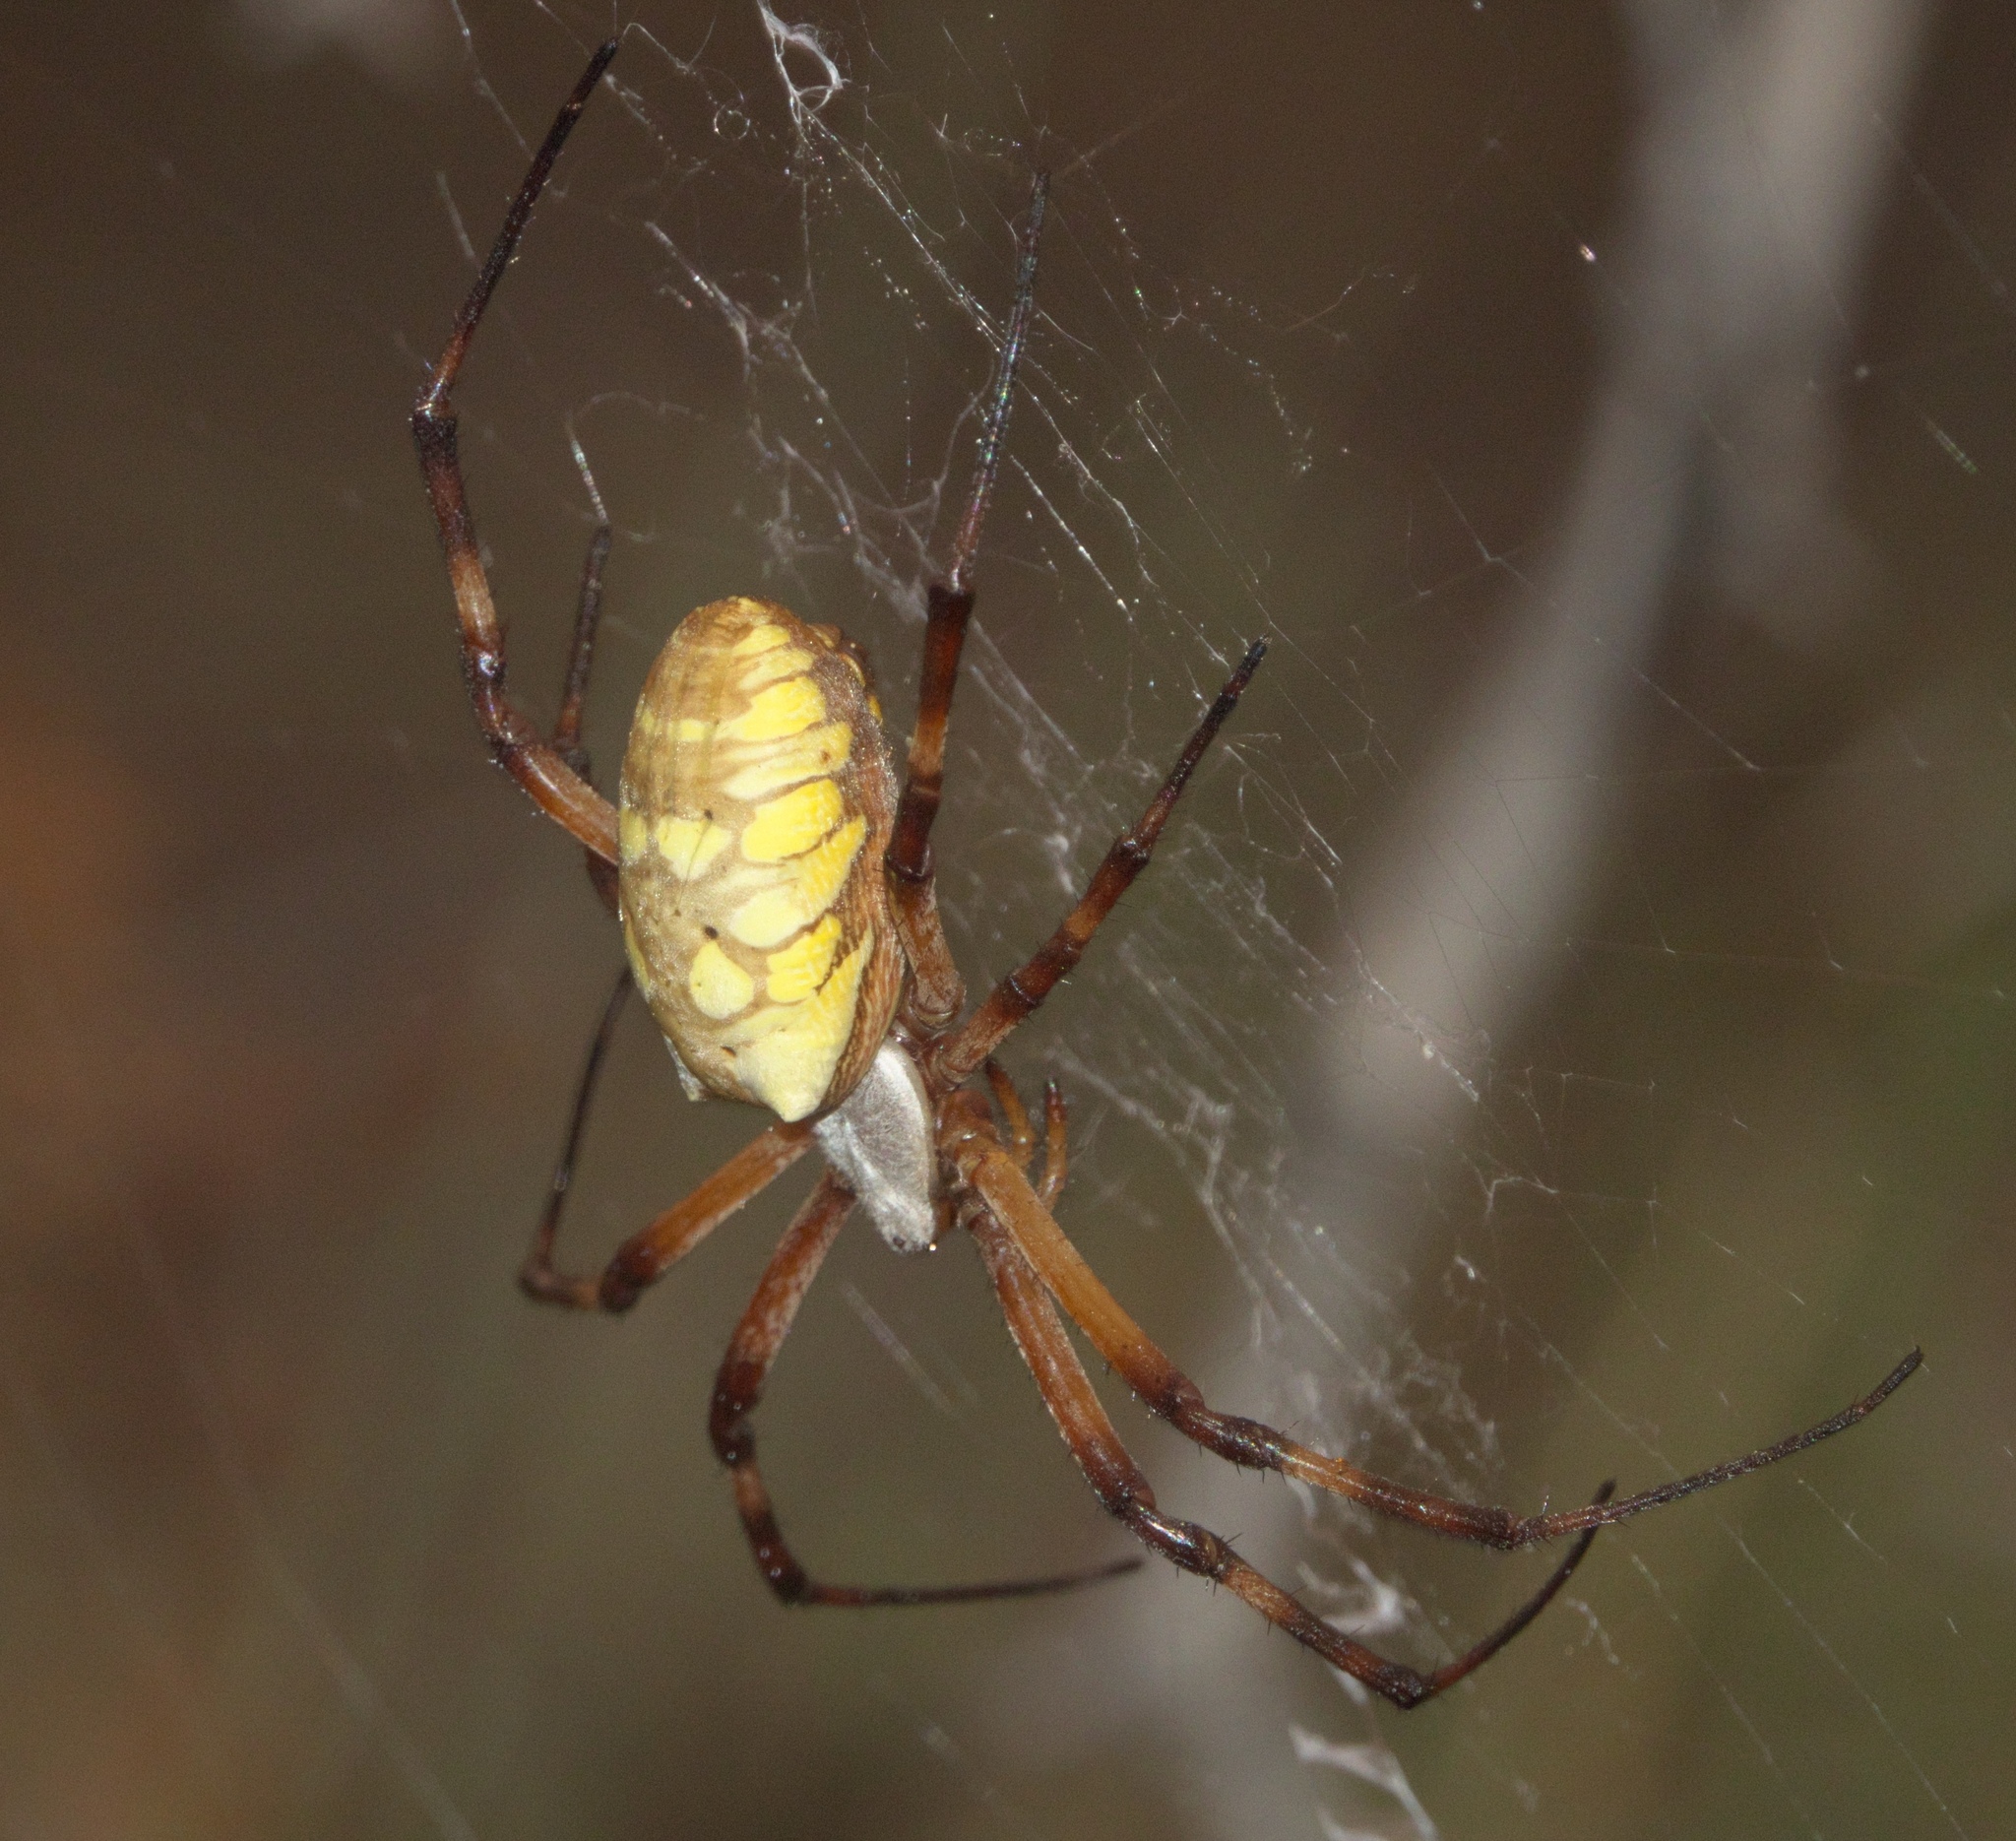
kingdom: Animalia
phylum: Arthropoda
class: Arachnida
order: Araneae
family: Araneidae
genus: Argiope
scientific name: Argiope aurantia
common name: Orb weavers
